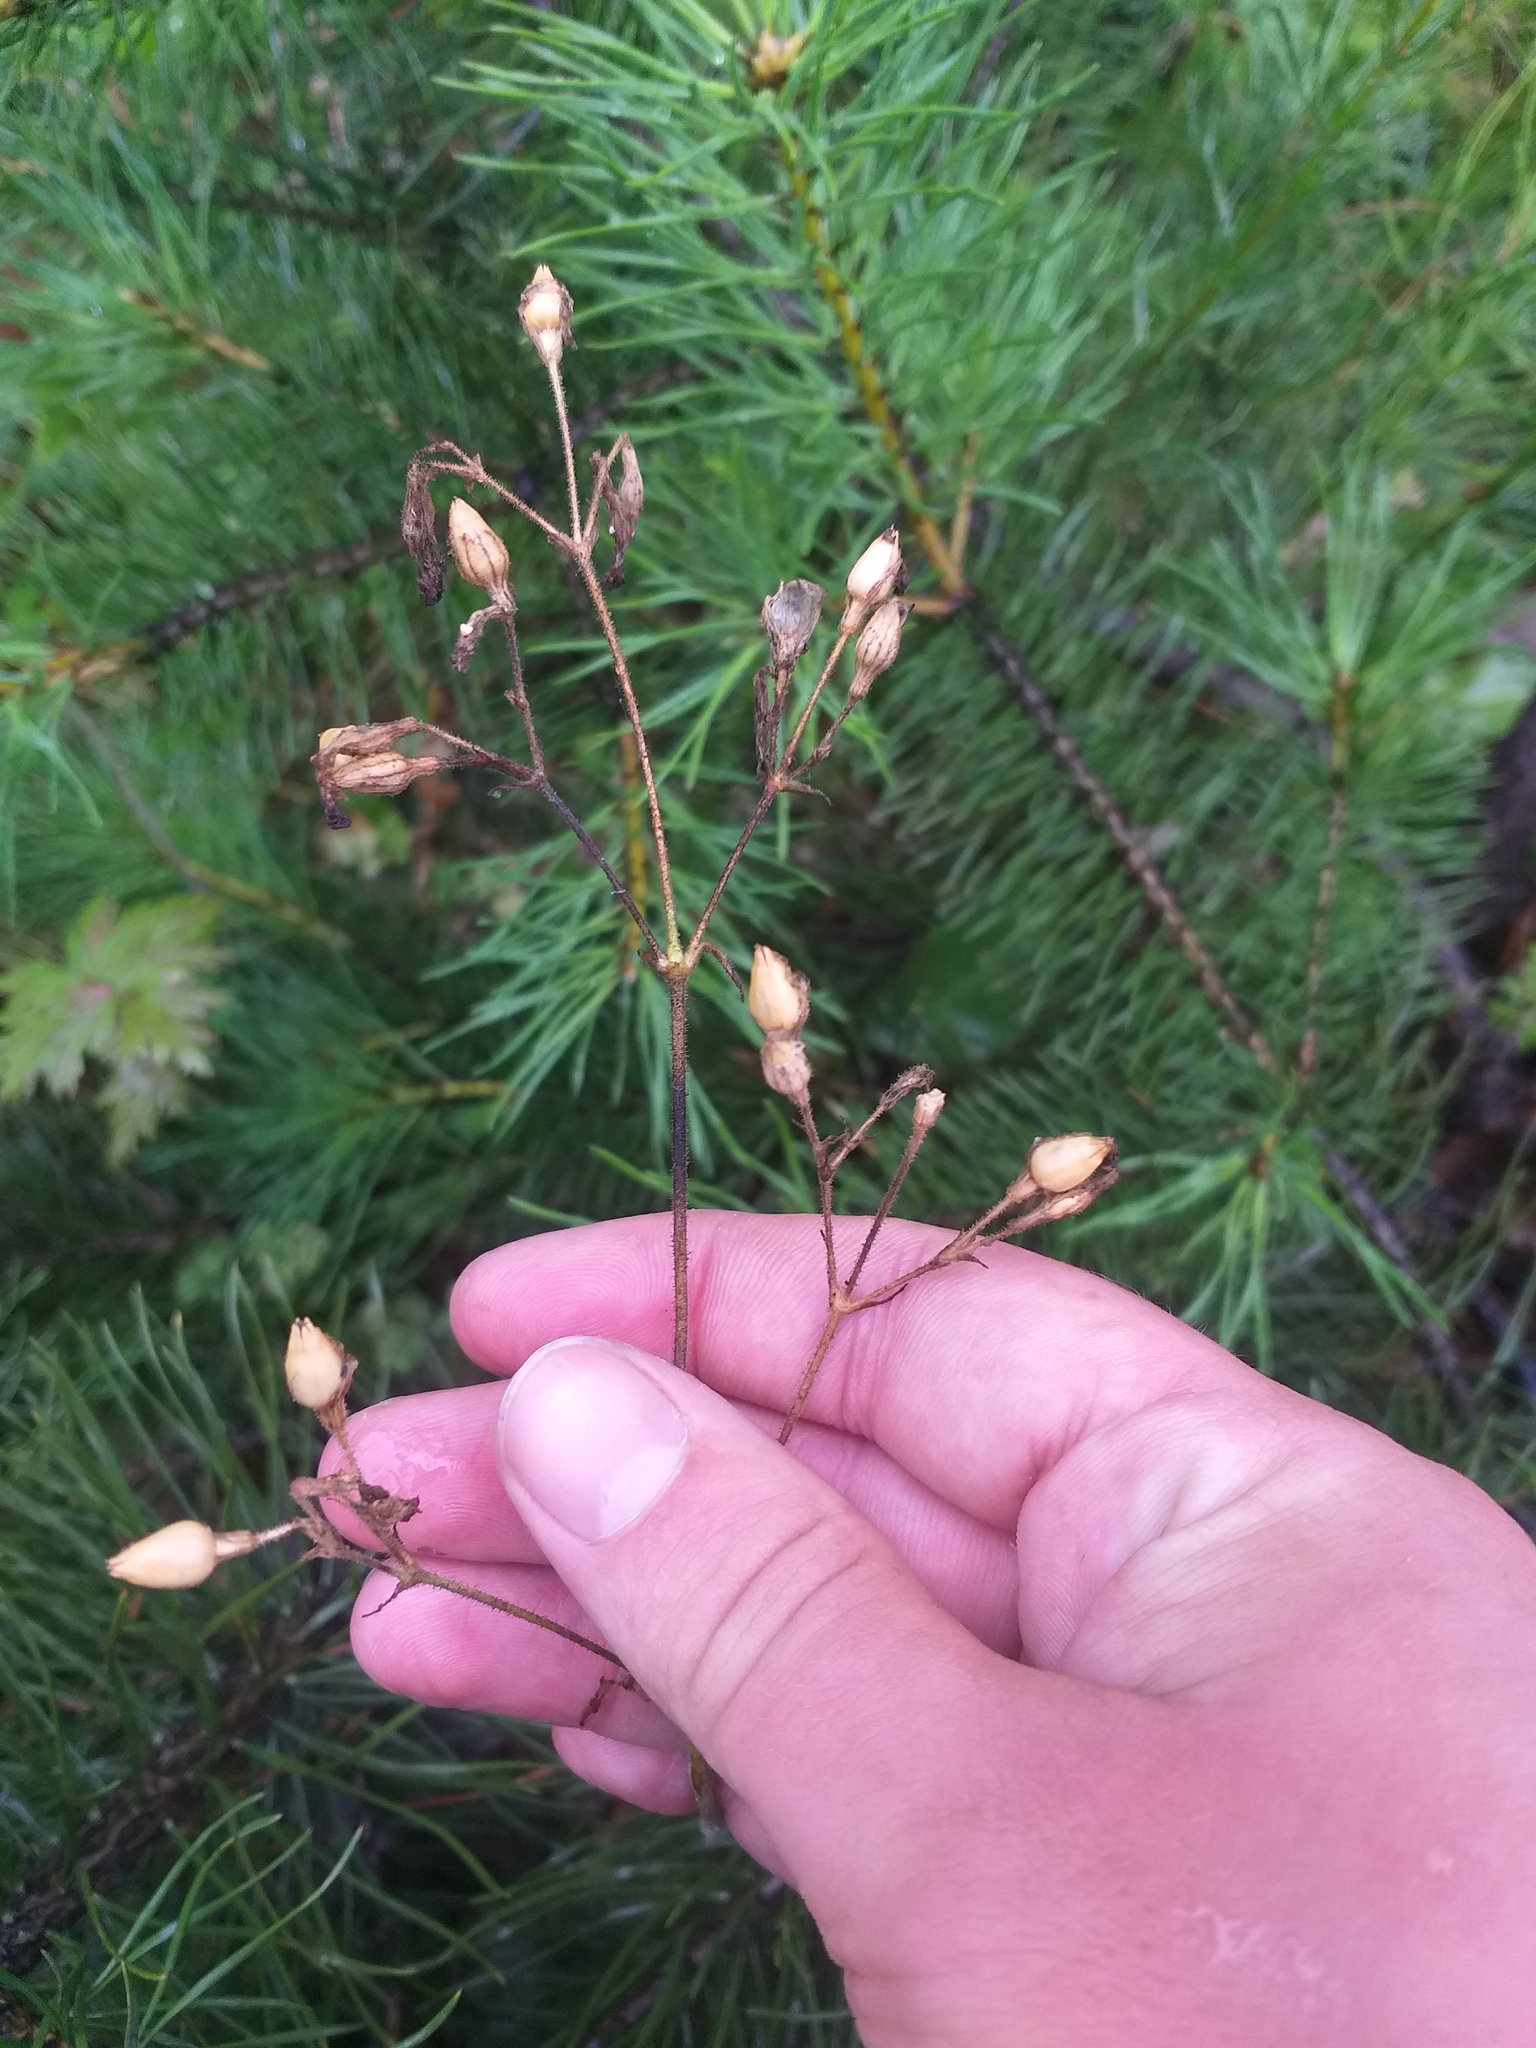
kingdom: Plantae
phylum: Tracheophyta
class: Magnoliopsida
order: Caryophyllales
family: Caryophyllaceae
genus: Silene
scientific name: Silene nutans
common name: Nottingham catchfly
